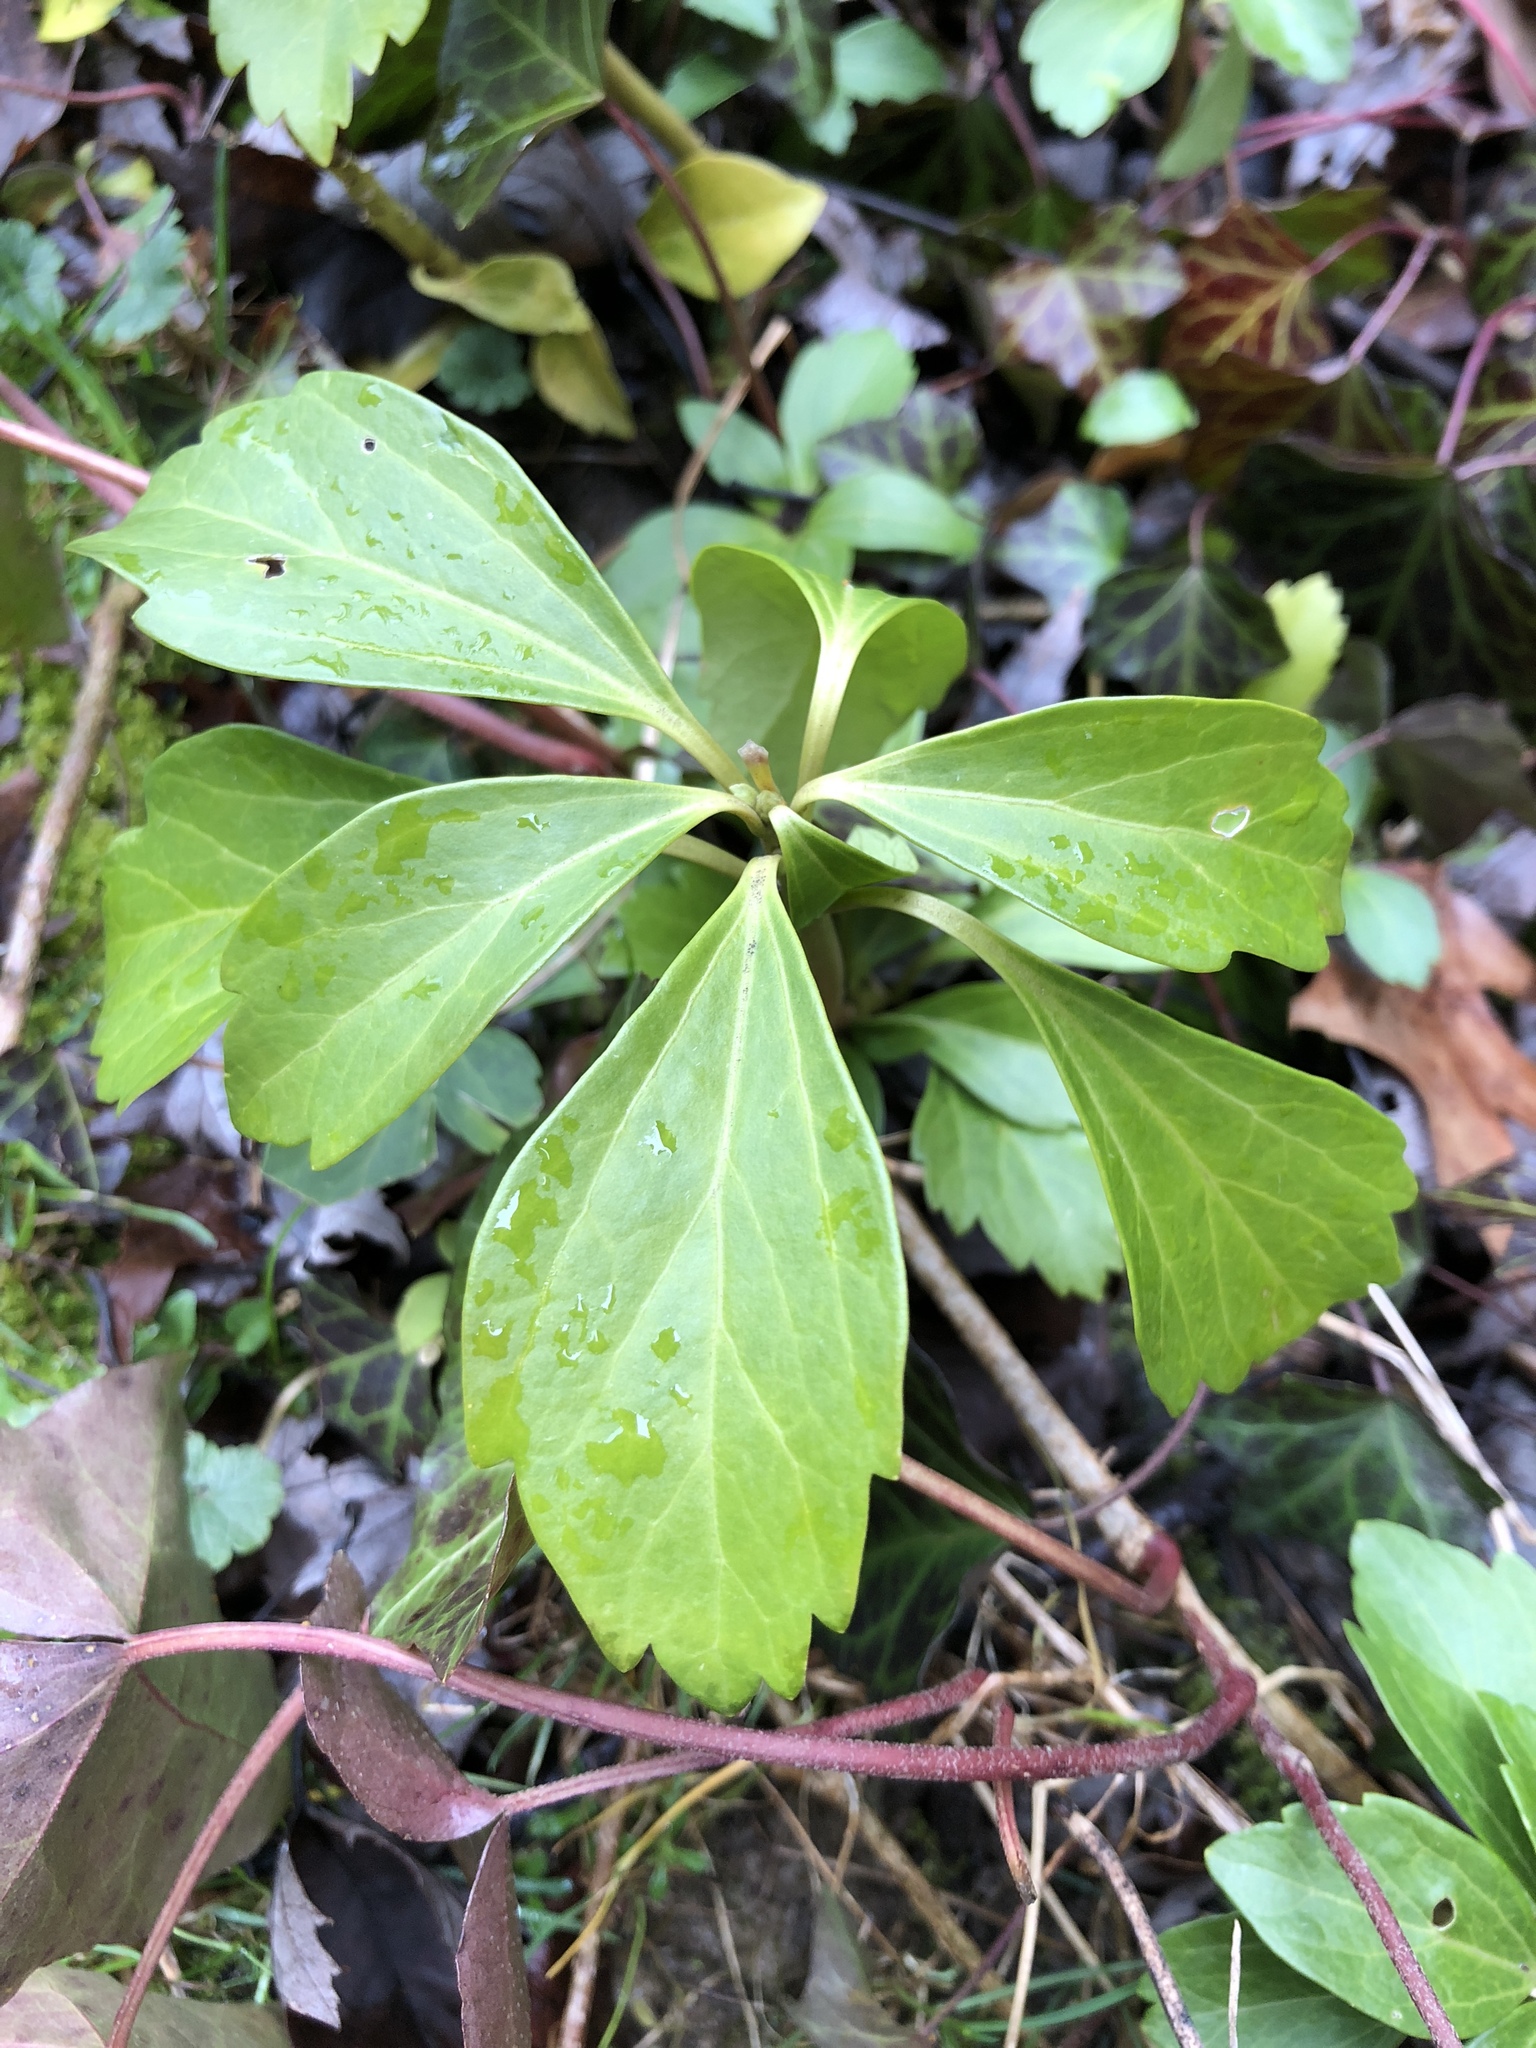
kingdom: Plantae
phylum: Tracheophyta
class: Magnoliopsida
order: Buxales
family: Buxaceae
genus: Pachysandra
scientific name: Pachysandra terminalis
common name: Japanese pachysandra
